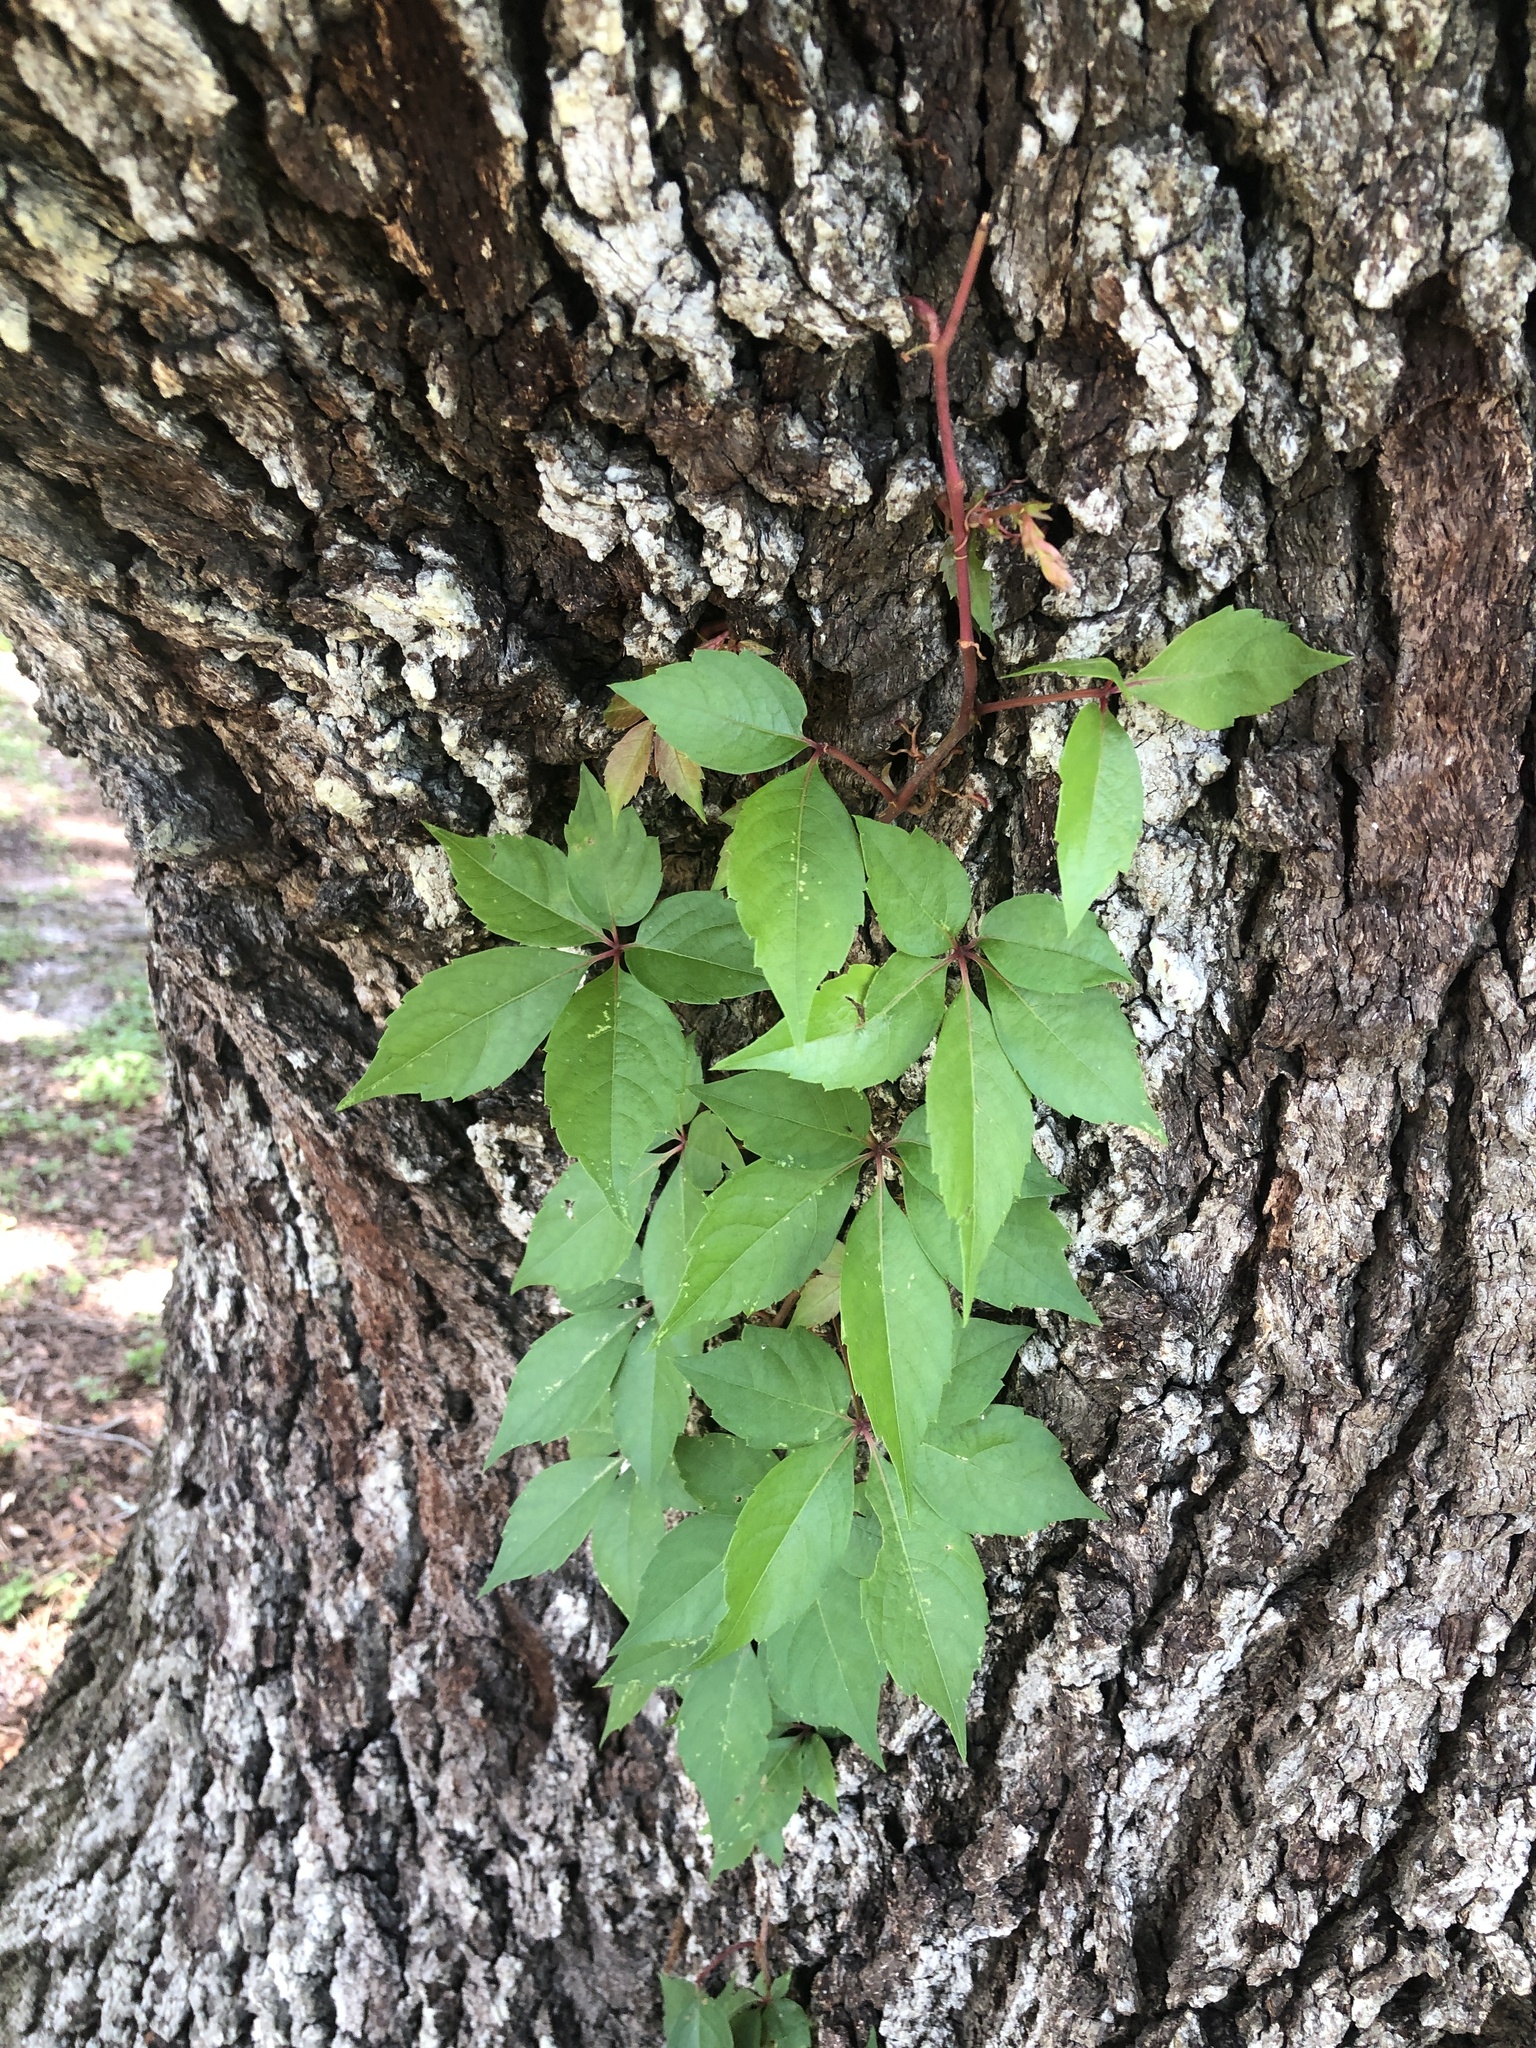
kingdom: Plantae
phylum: Tracheophyta
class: Magnoliopsida
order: Vitales
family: Vitaceae
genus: Parthenocissus
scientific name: Parthenocissus quinquefolia
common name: Virginia-creeper
